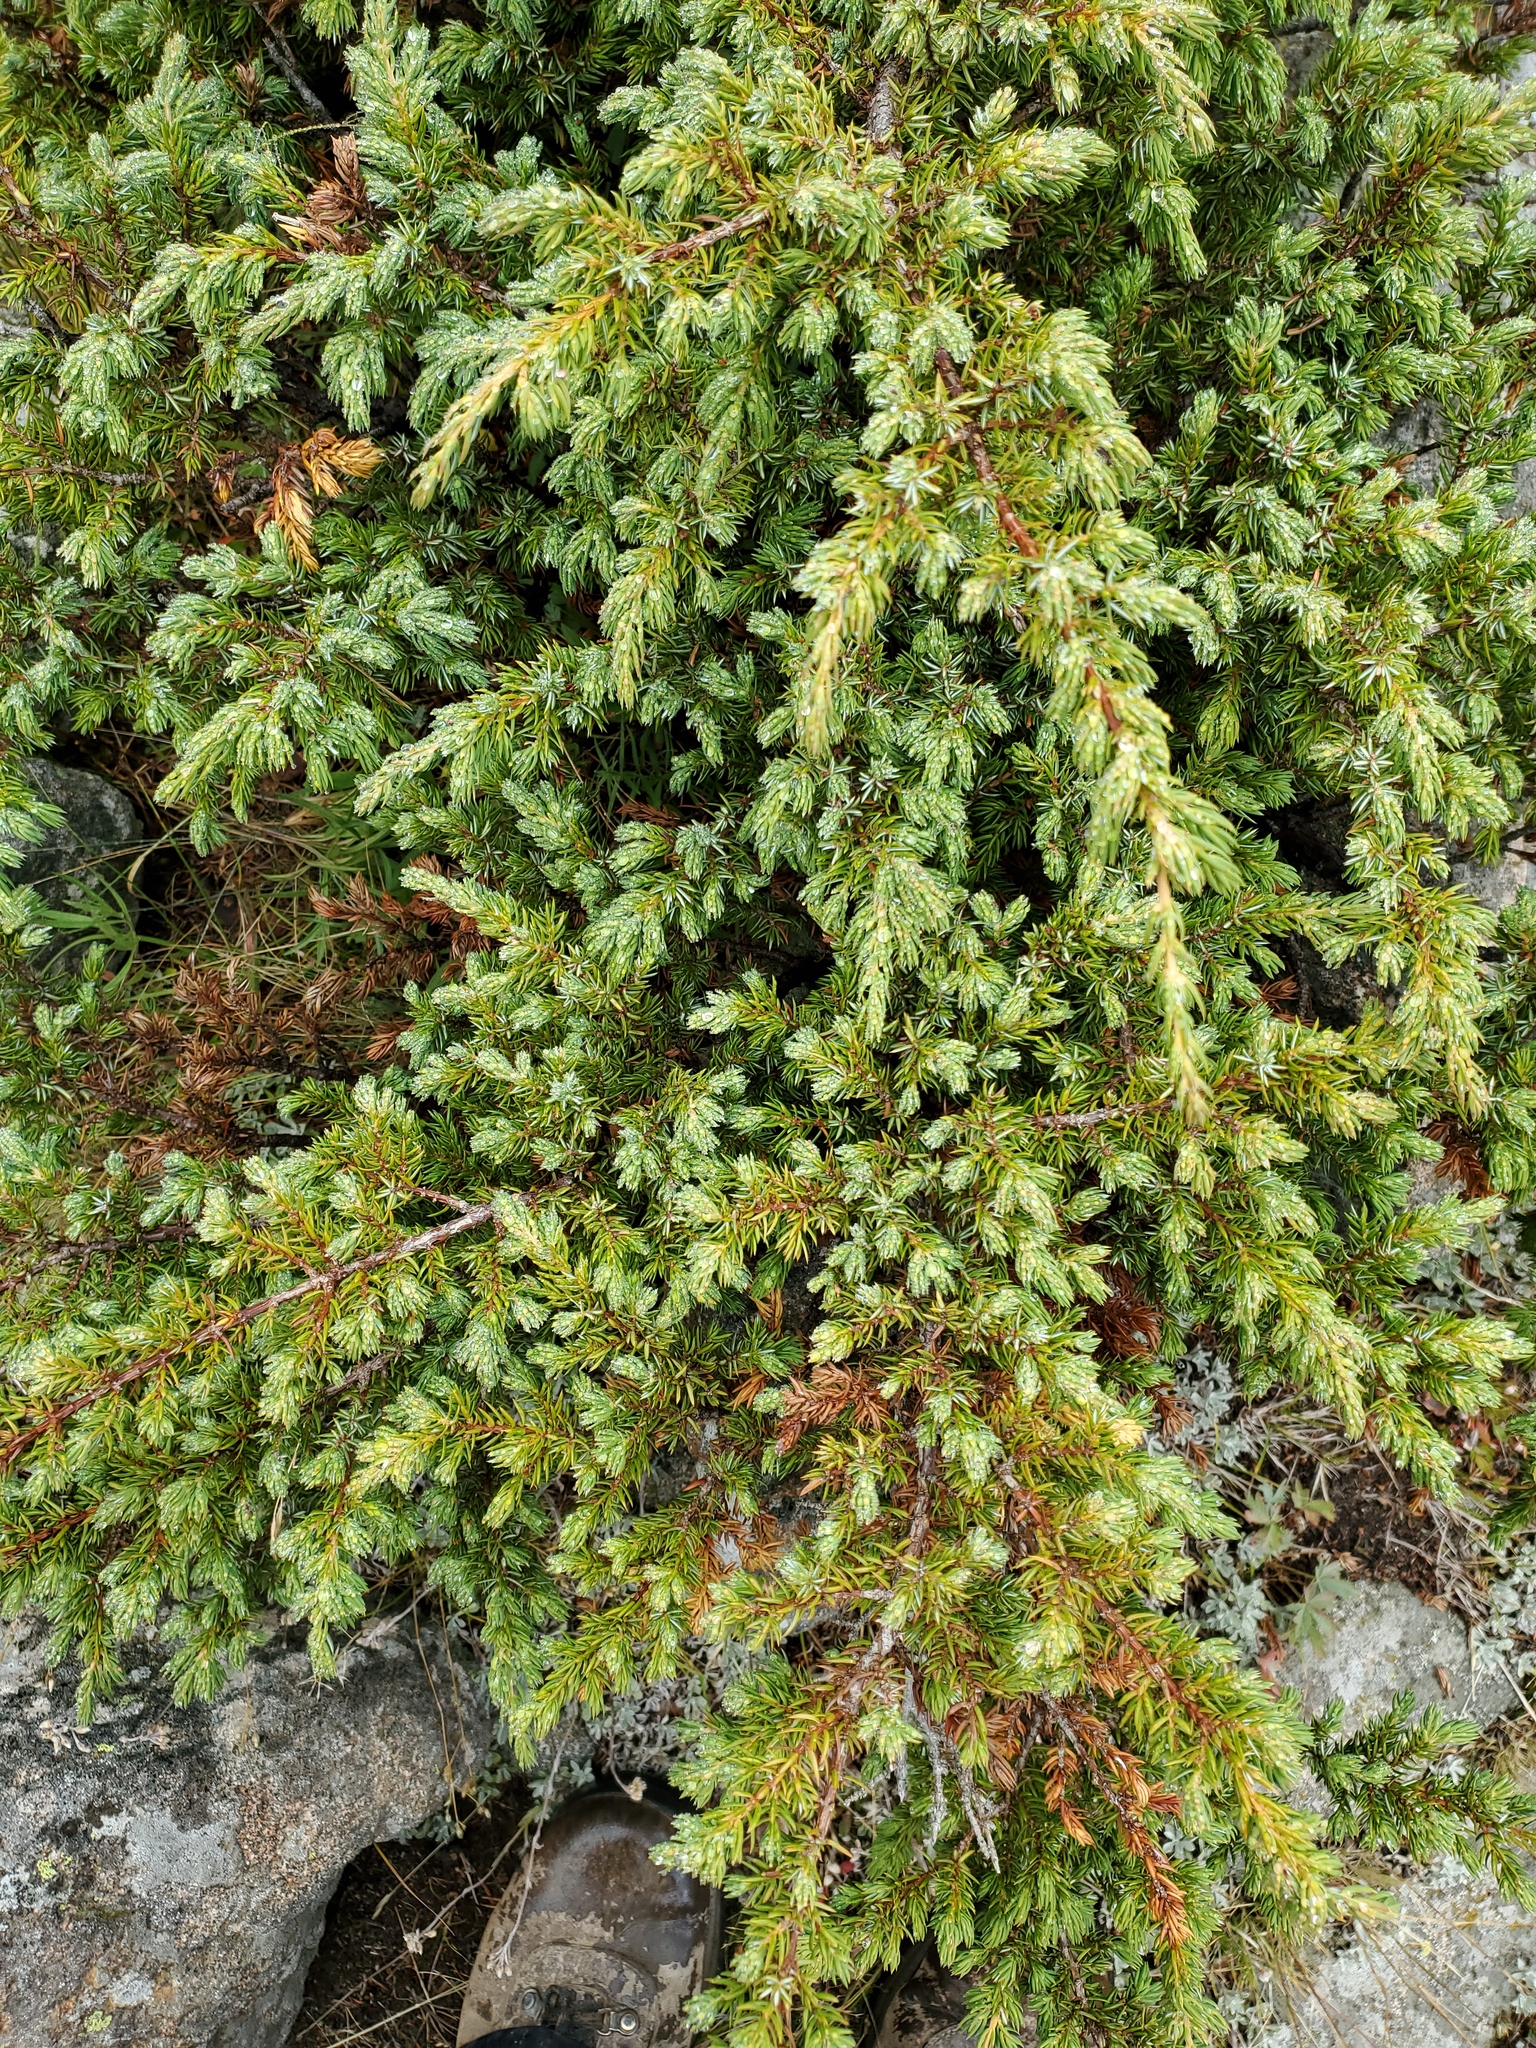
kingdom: Plantae
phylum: Tracheophyta
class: Pinopsida
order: Pinales
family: Cupressaceae
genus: Juniperus
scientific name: Juniperus communis
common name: Common juniper
